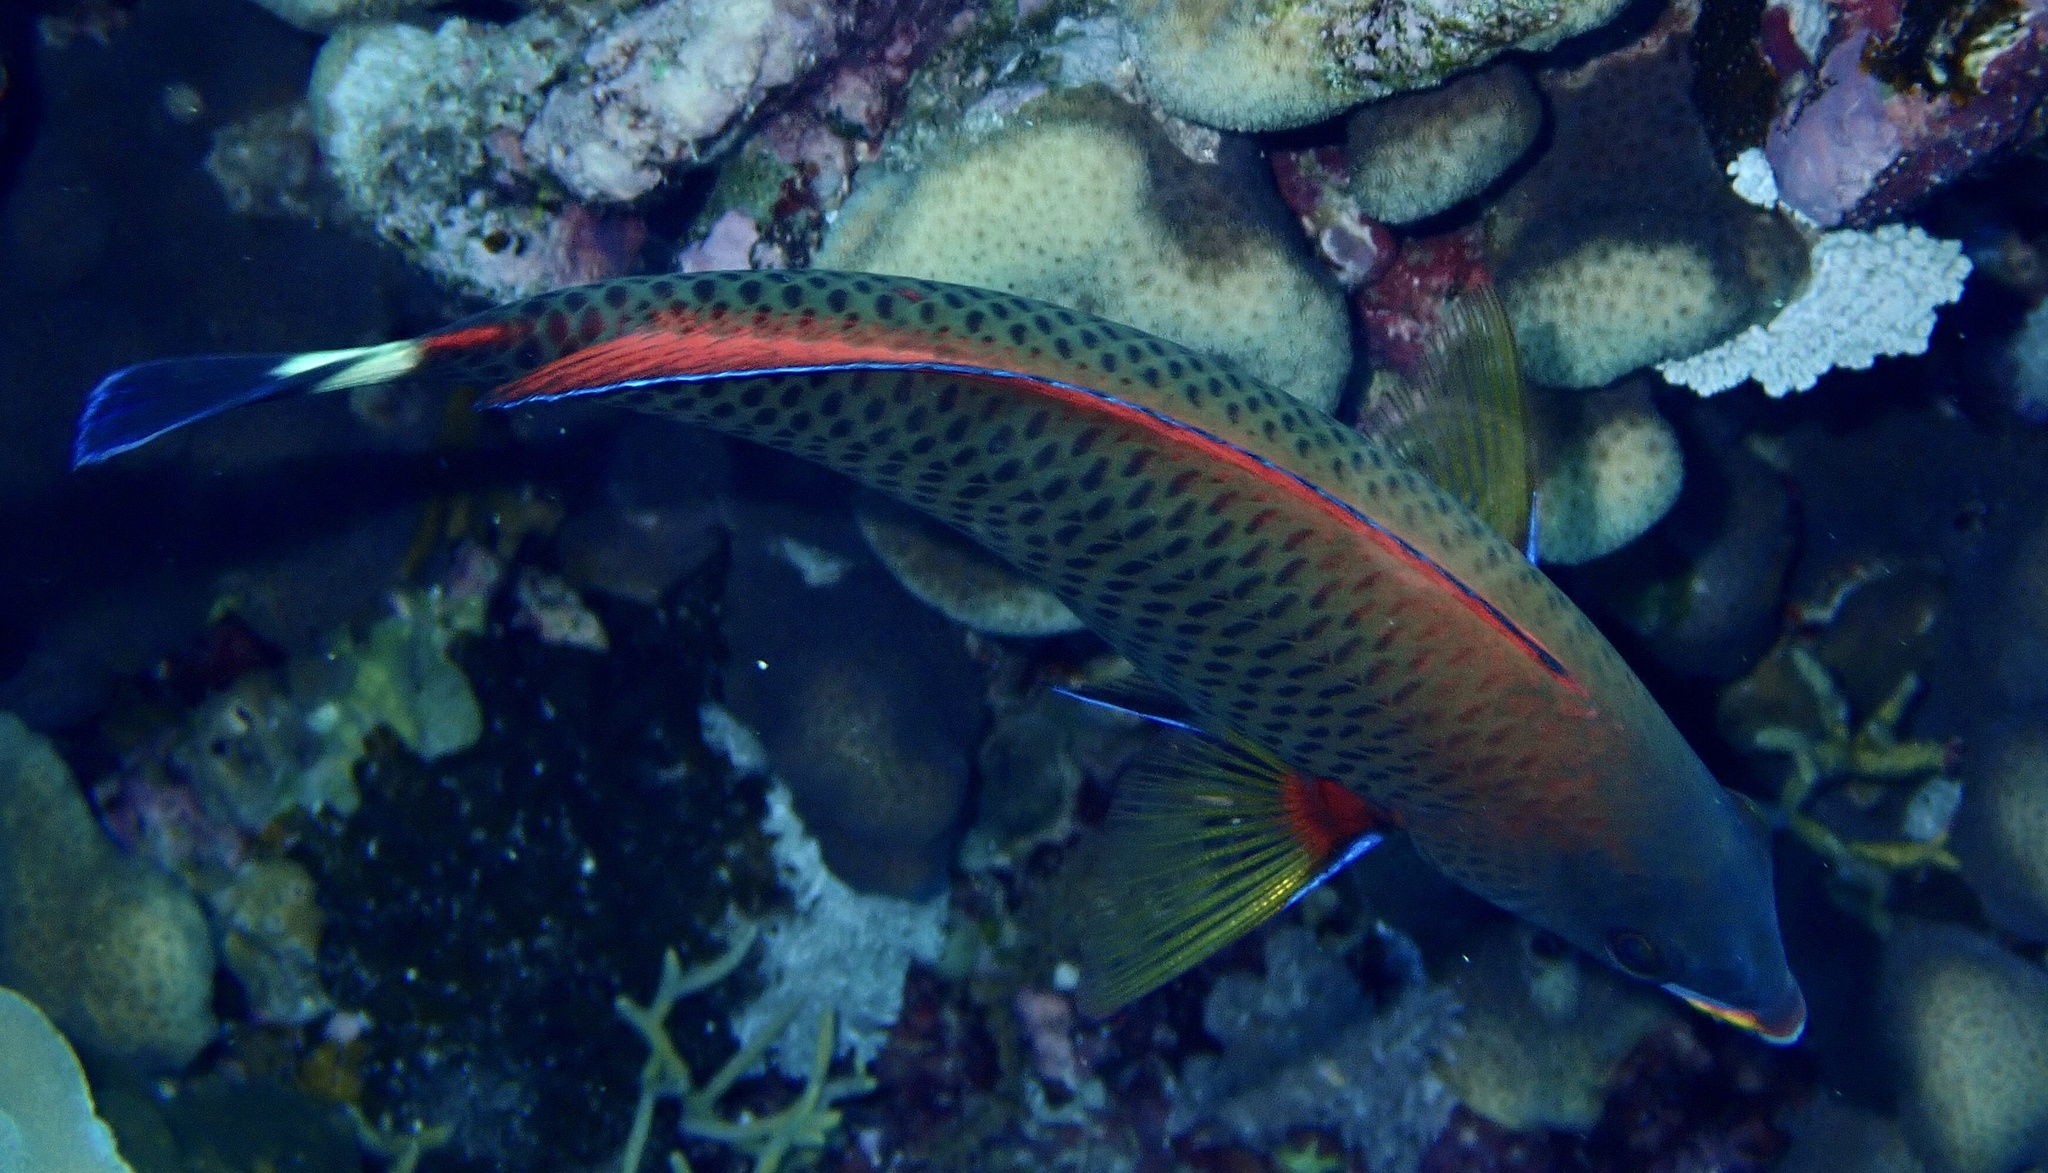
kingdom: Animalia
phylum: Chordata
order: Perciformes
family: Labridae
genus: Pseudodax
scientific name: Pseudodax moluccanus
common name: Chiseltooth wrasse
